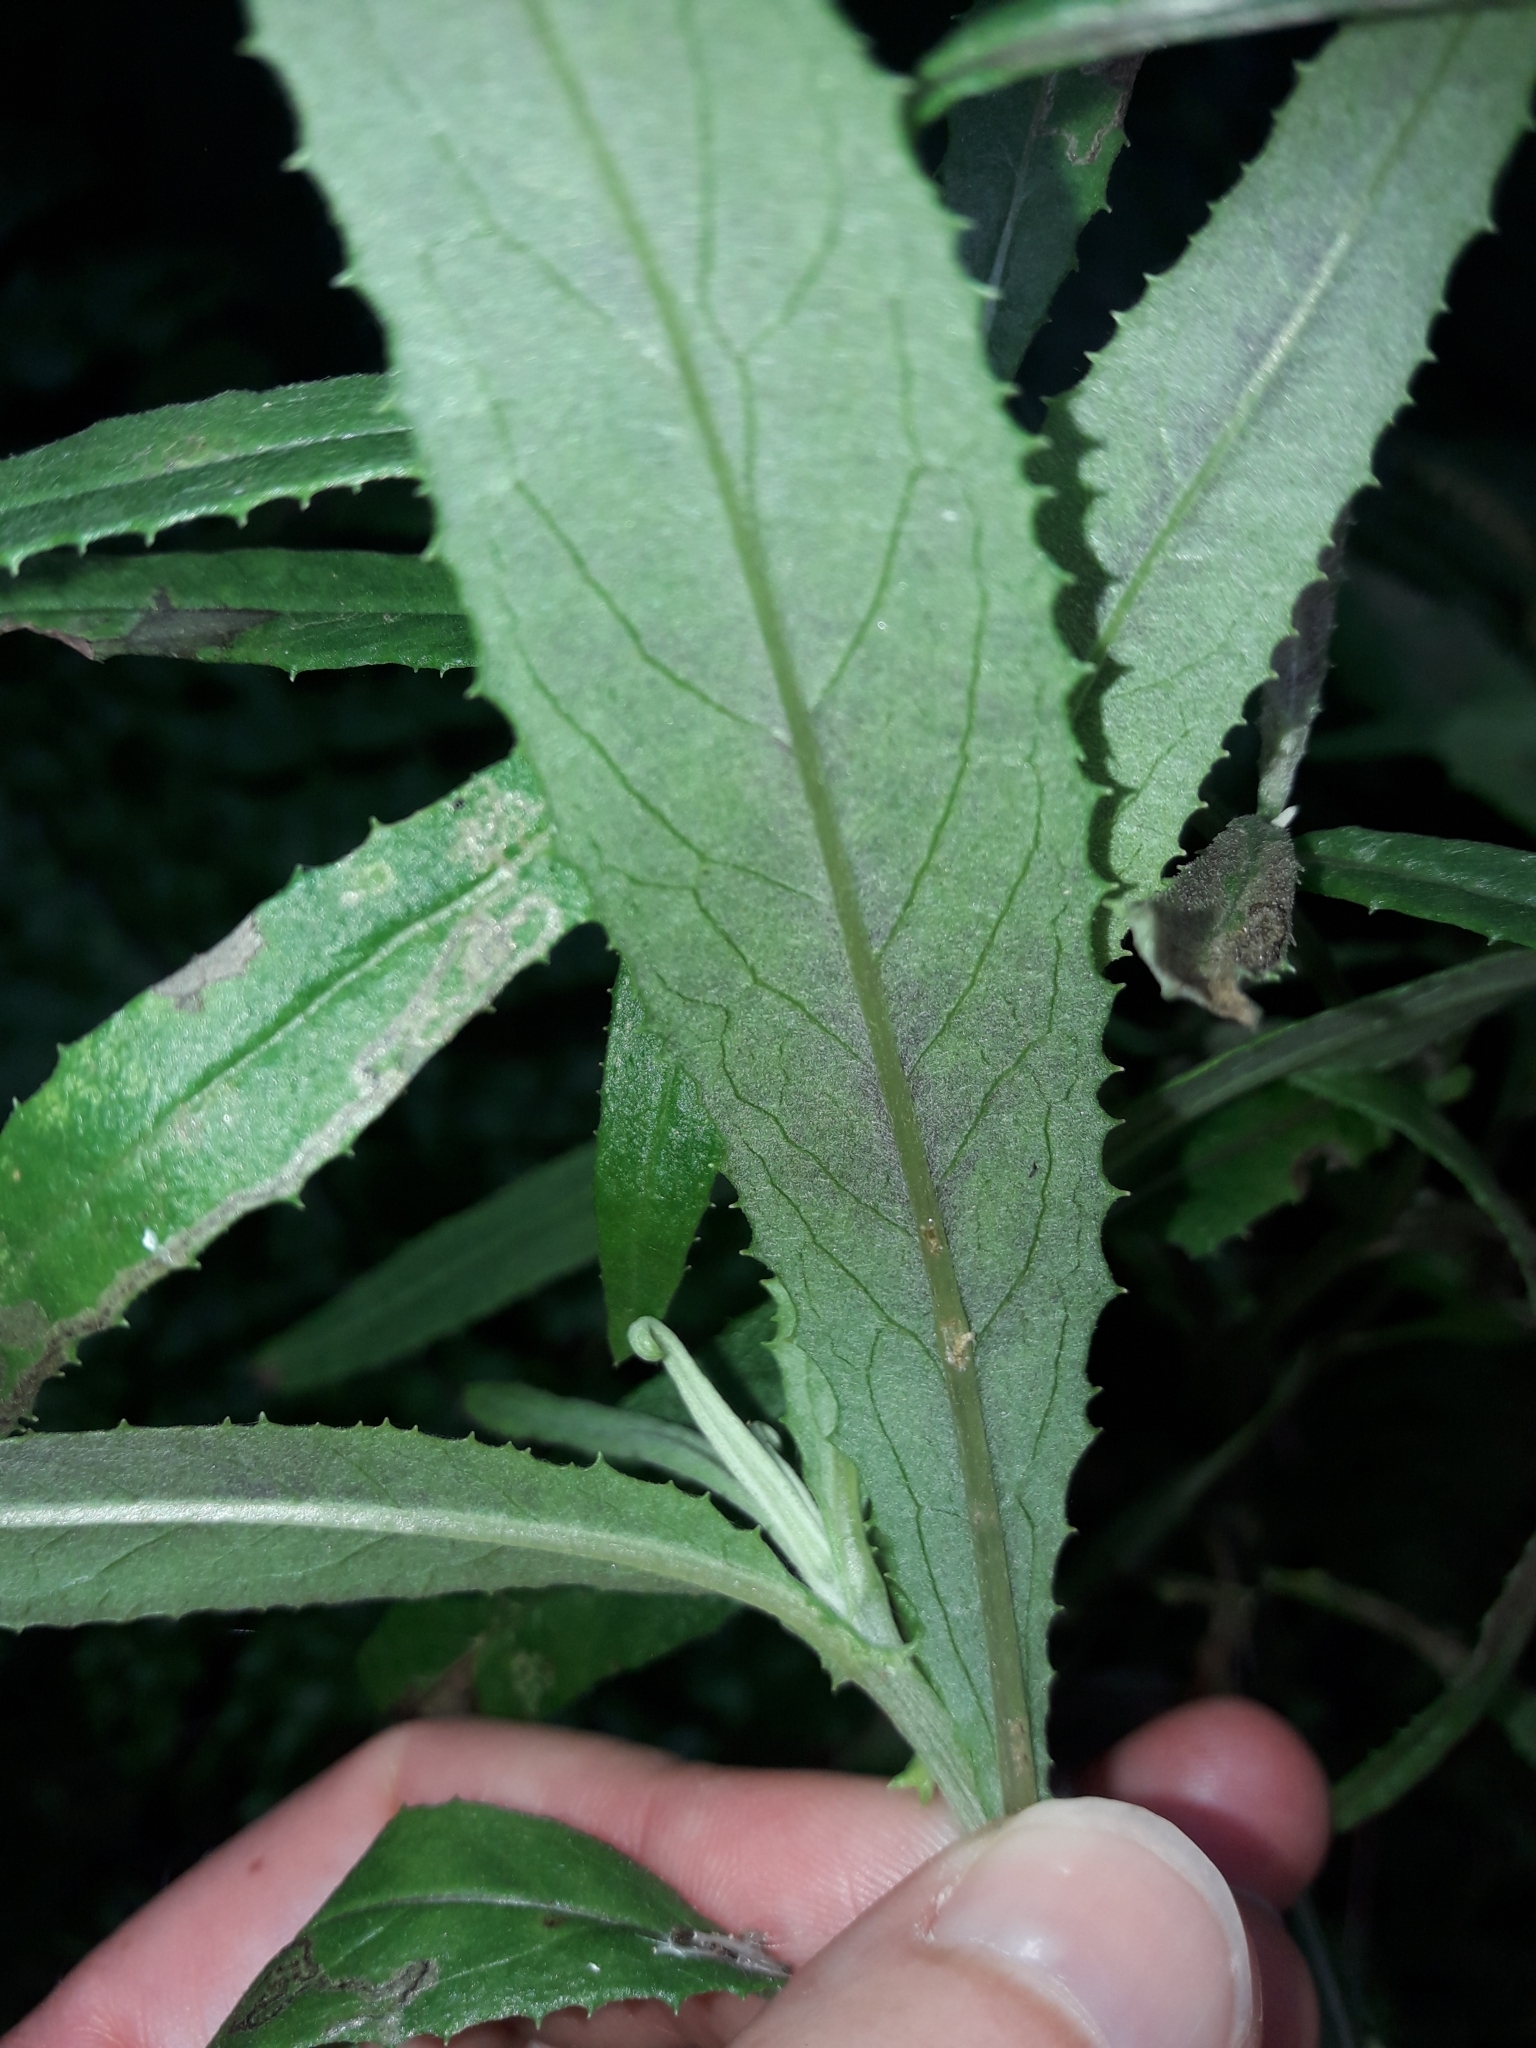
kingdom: Plantae
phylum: Tracheophyta
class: Magnoliopsida
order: Asterales
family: Asteraceae
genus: Senecio
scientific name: Senecio minimus
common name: Toothed fireweed
